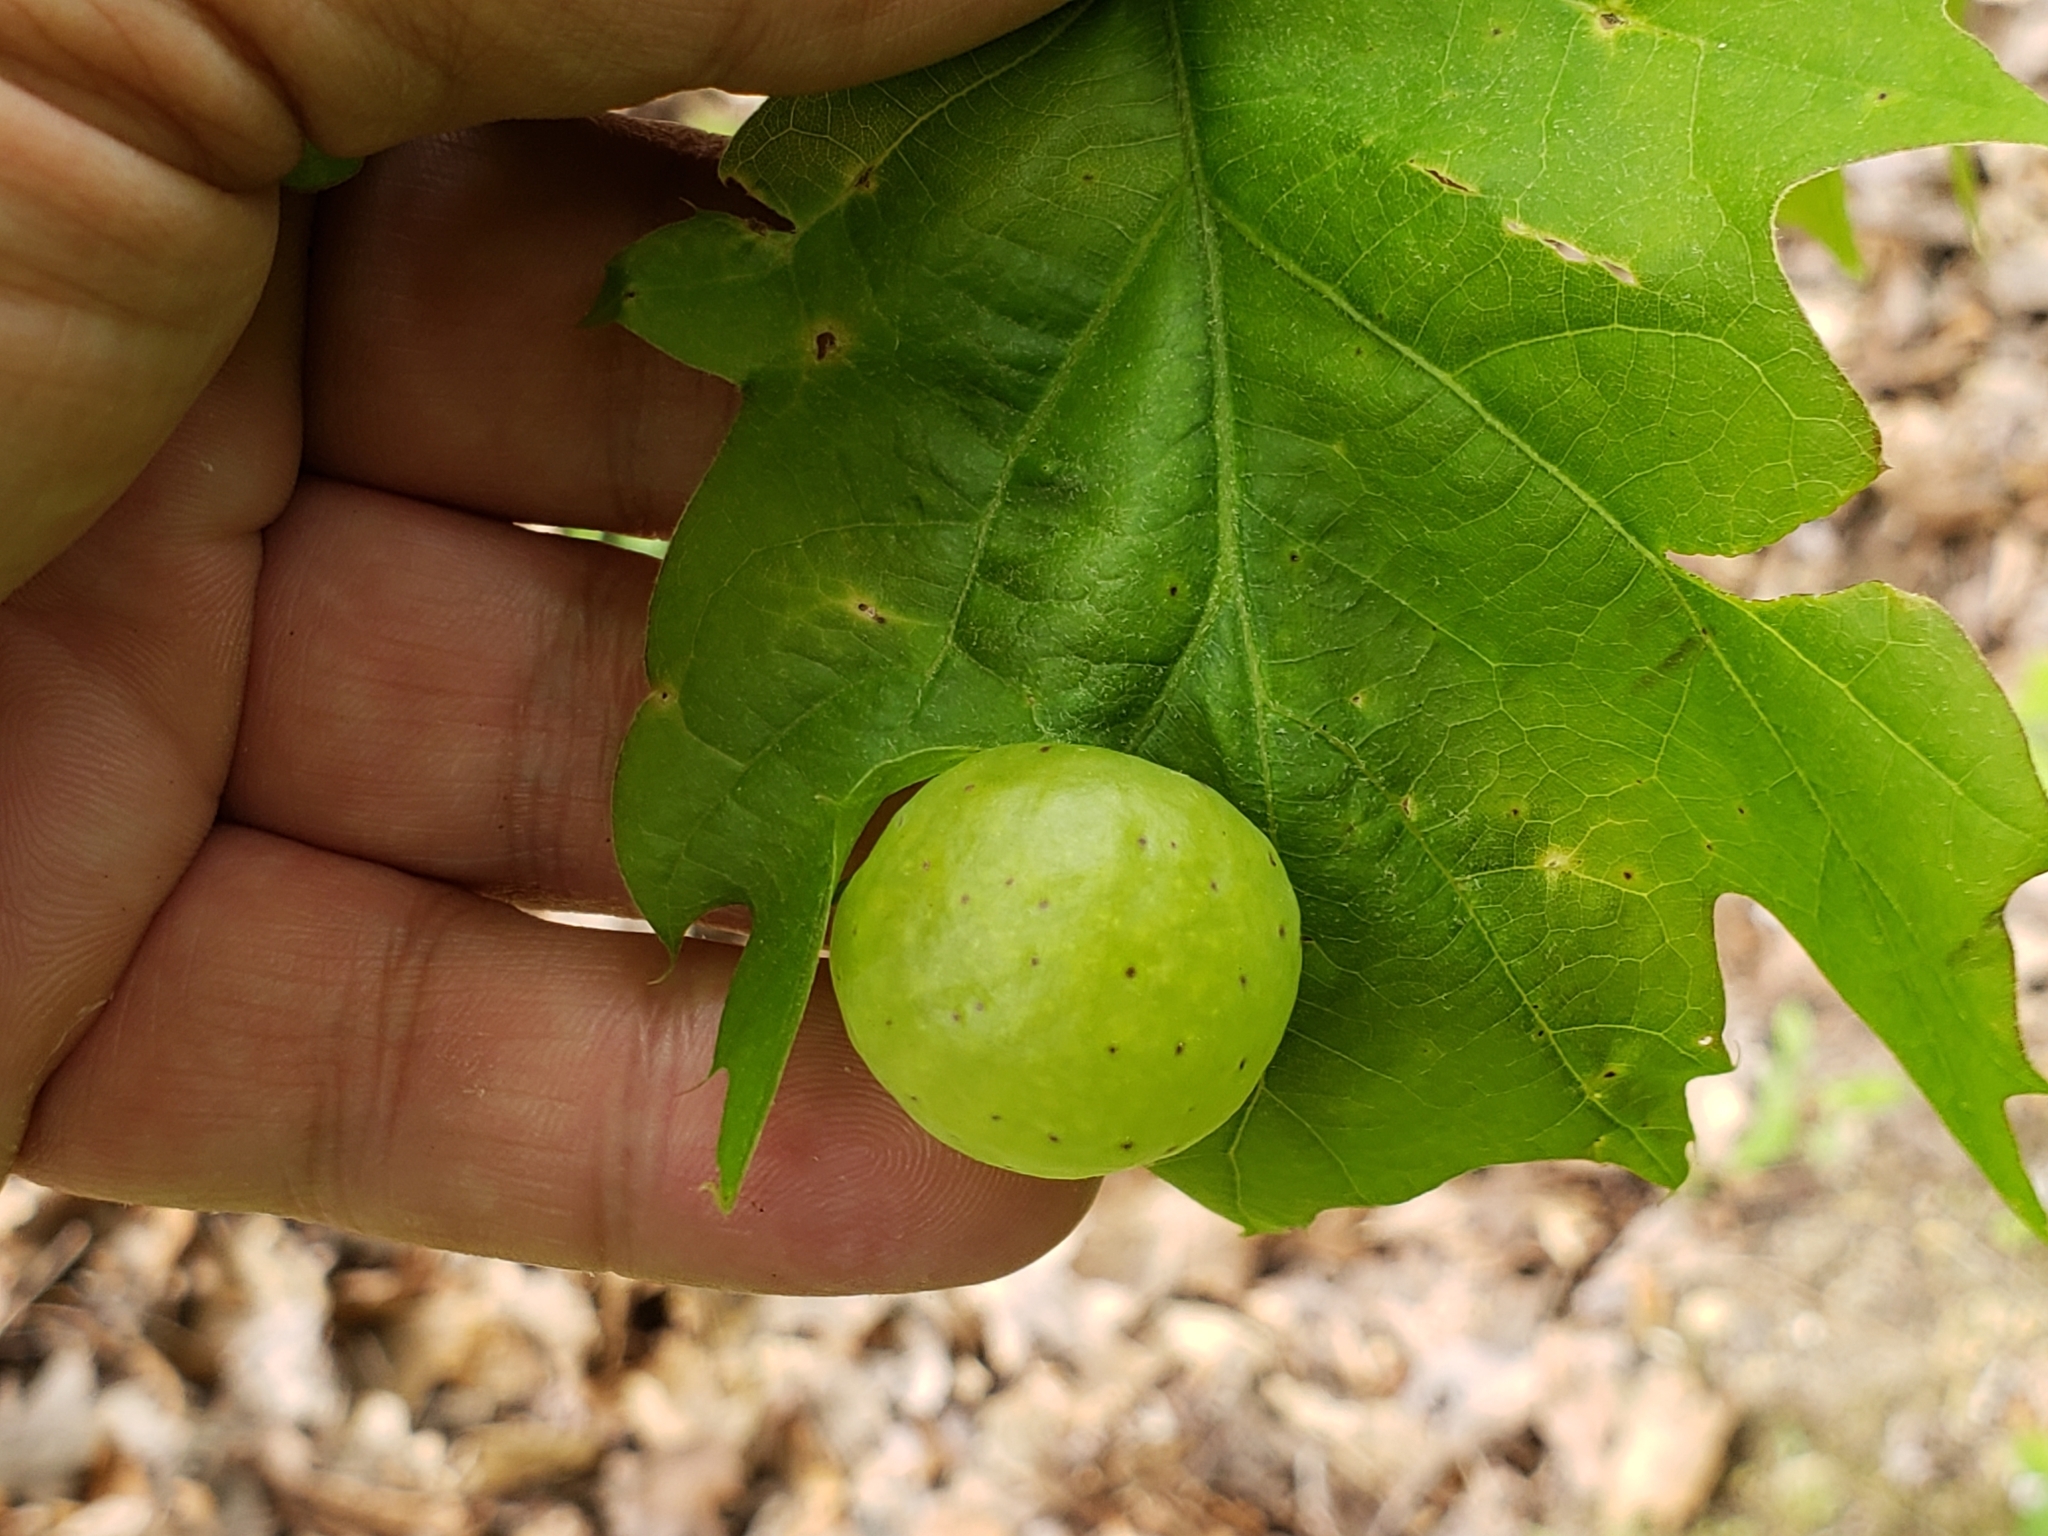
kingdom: Animalia
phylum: Arthropoda
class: Insecta
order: Hymenoptera
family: Cynipidae
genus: Amphibolips
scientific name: Amphibolips
